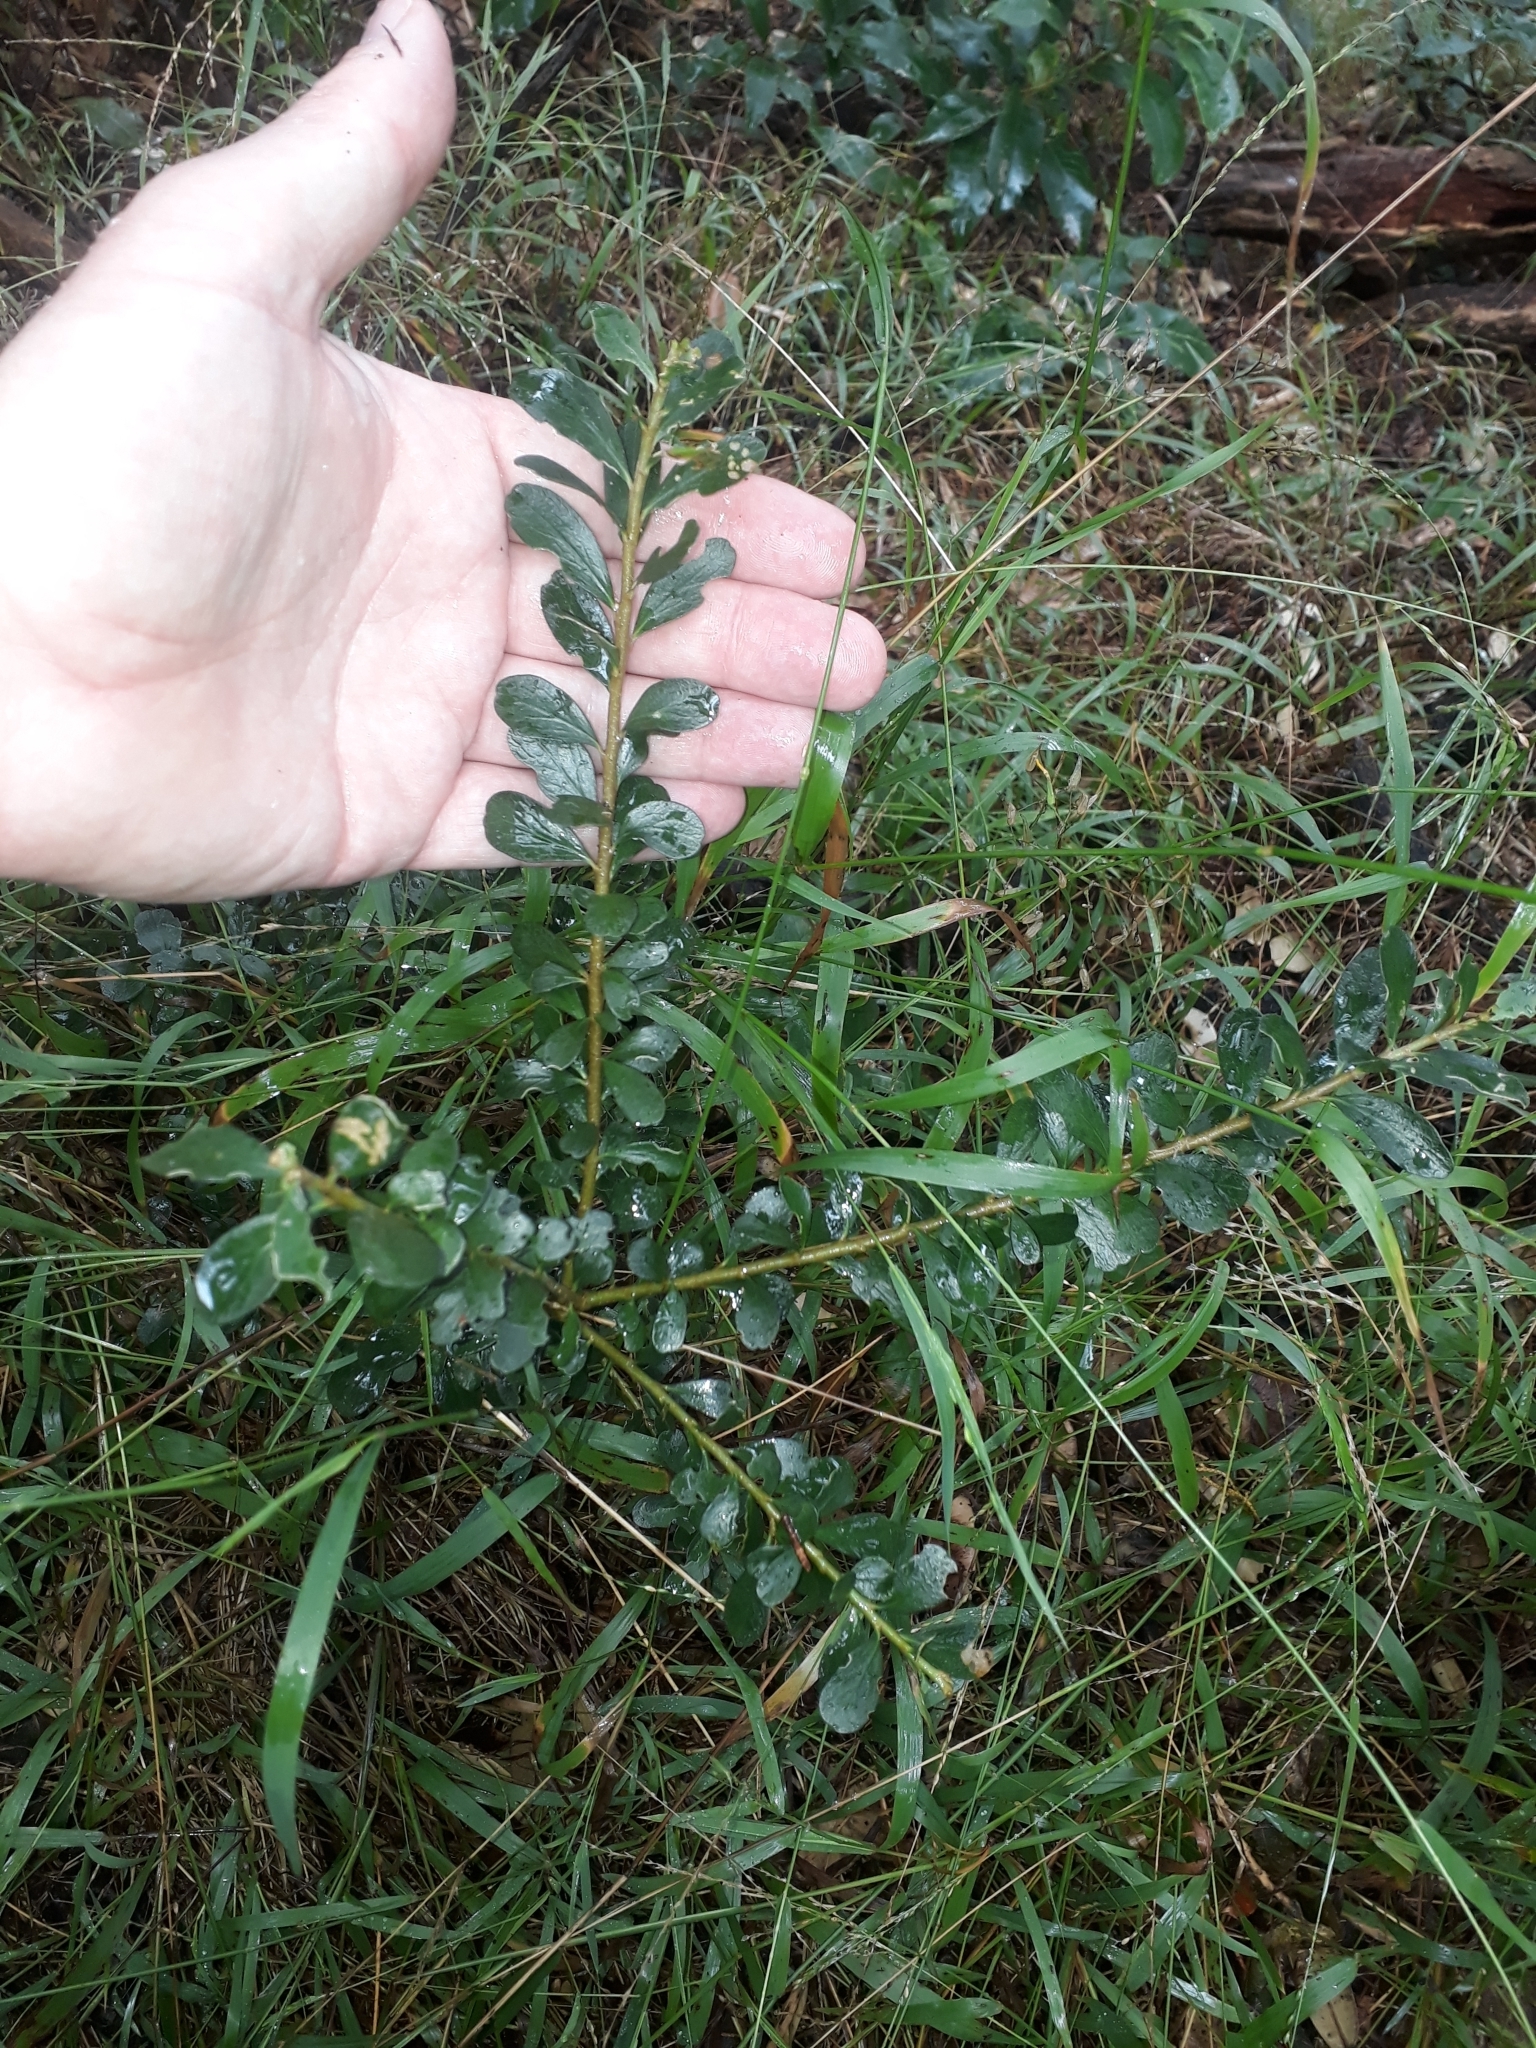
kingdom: Plantae
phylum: Tracheophyta
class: Magnoliopsida
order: Malpighiales
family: Violaceae
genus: Melicytus
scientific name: Melicytus crassifolius
